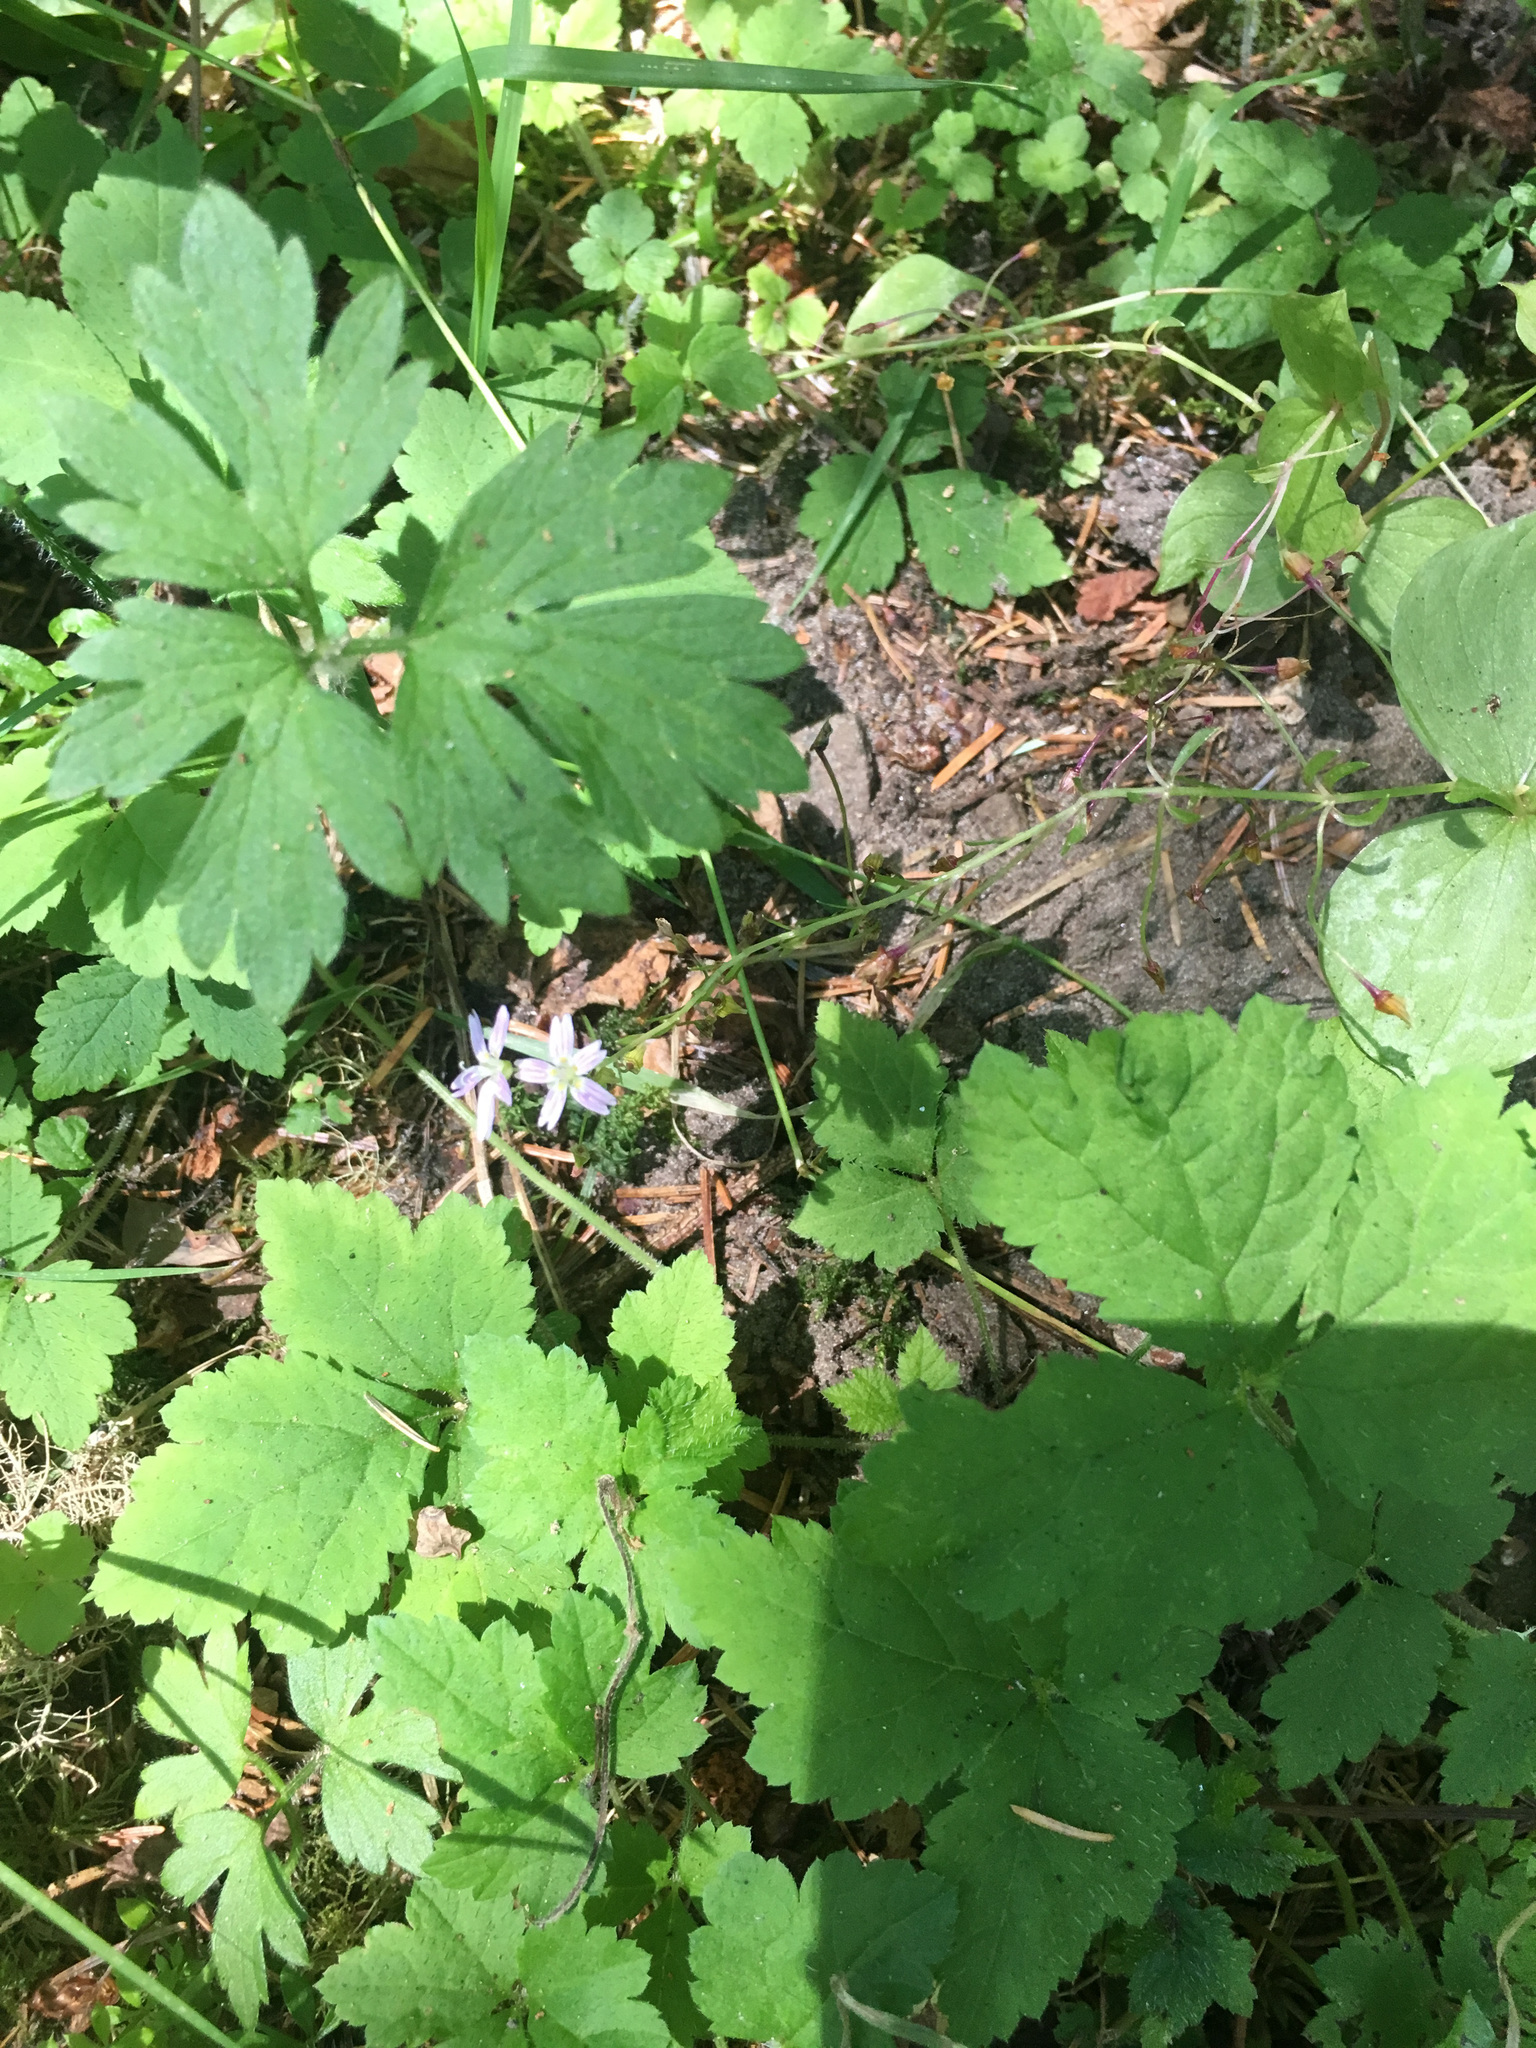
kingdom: Plantae
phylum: Tracheophyta
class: Magnoliopsida
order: Caryophyllales
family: Montiaceae
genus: Claytonia
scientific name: Claytonia sibirica
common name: Pink purslane
